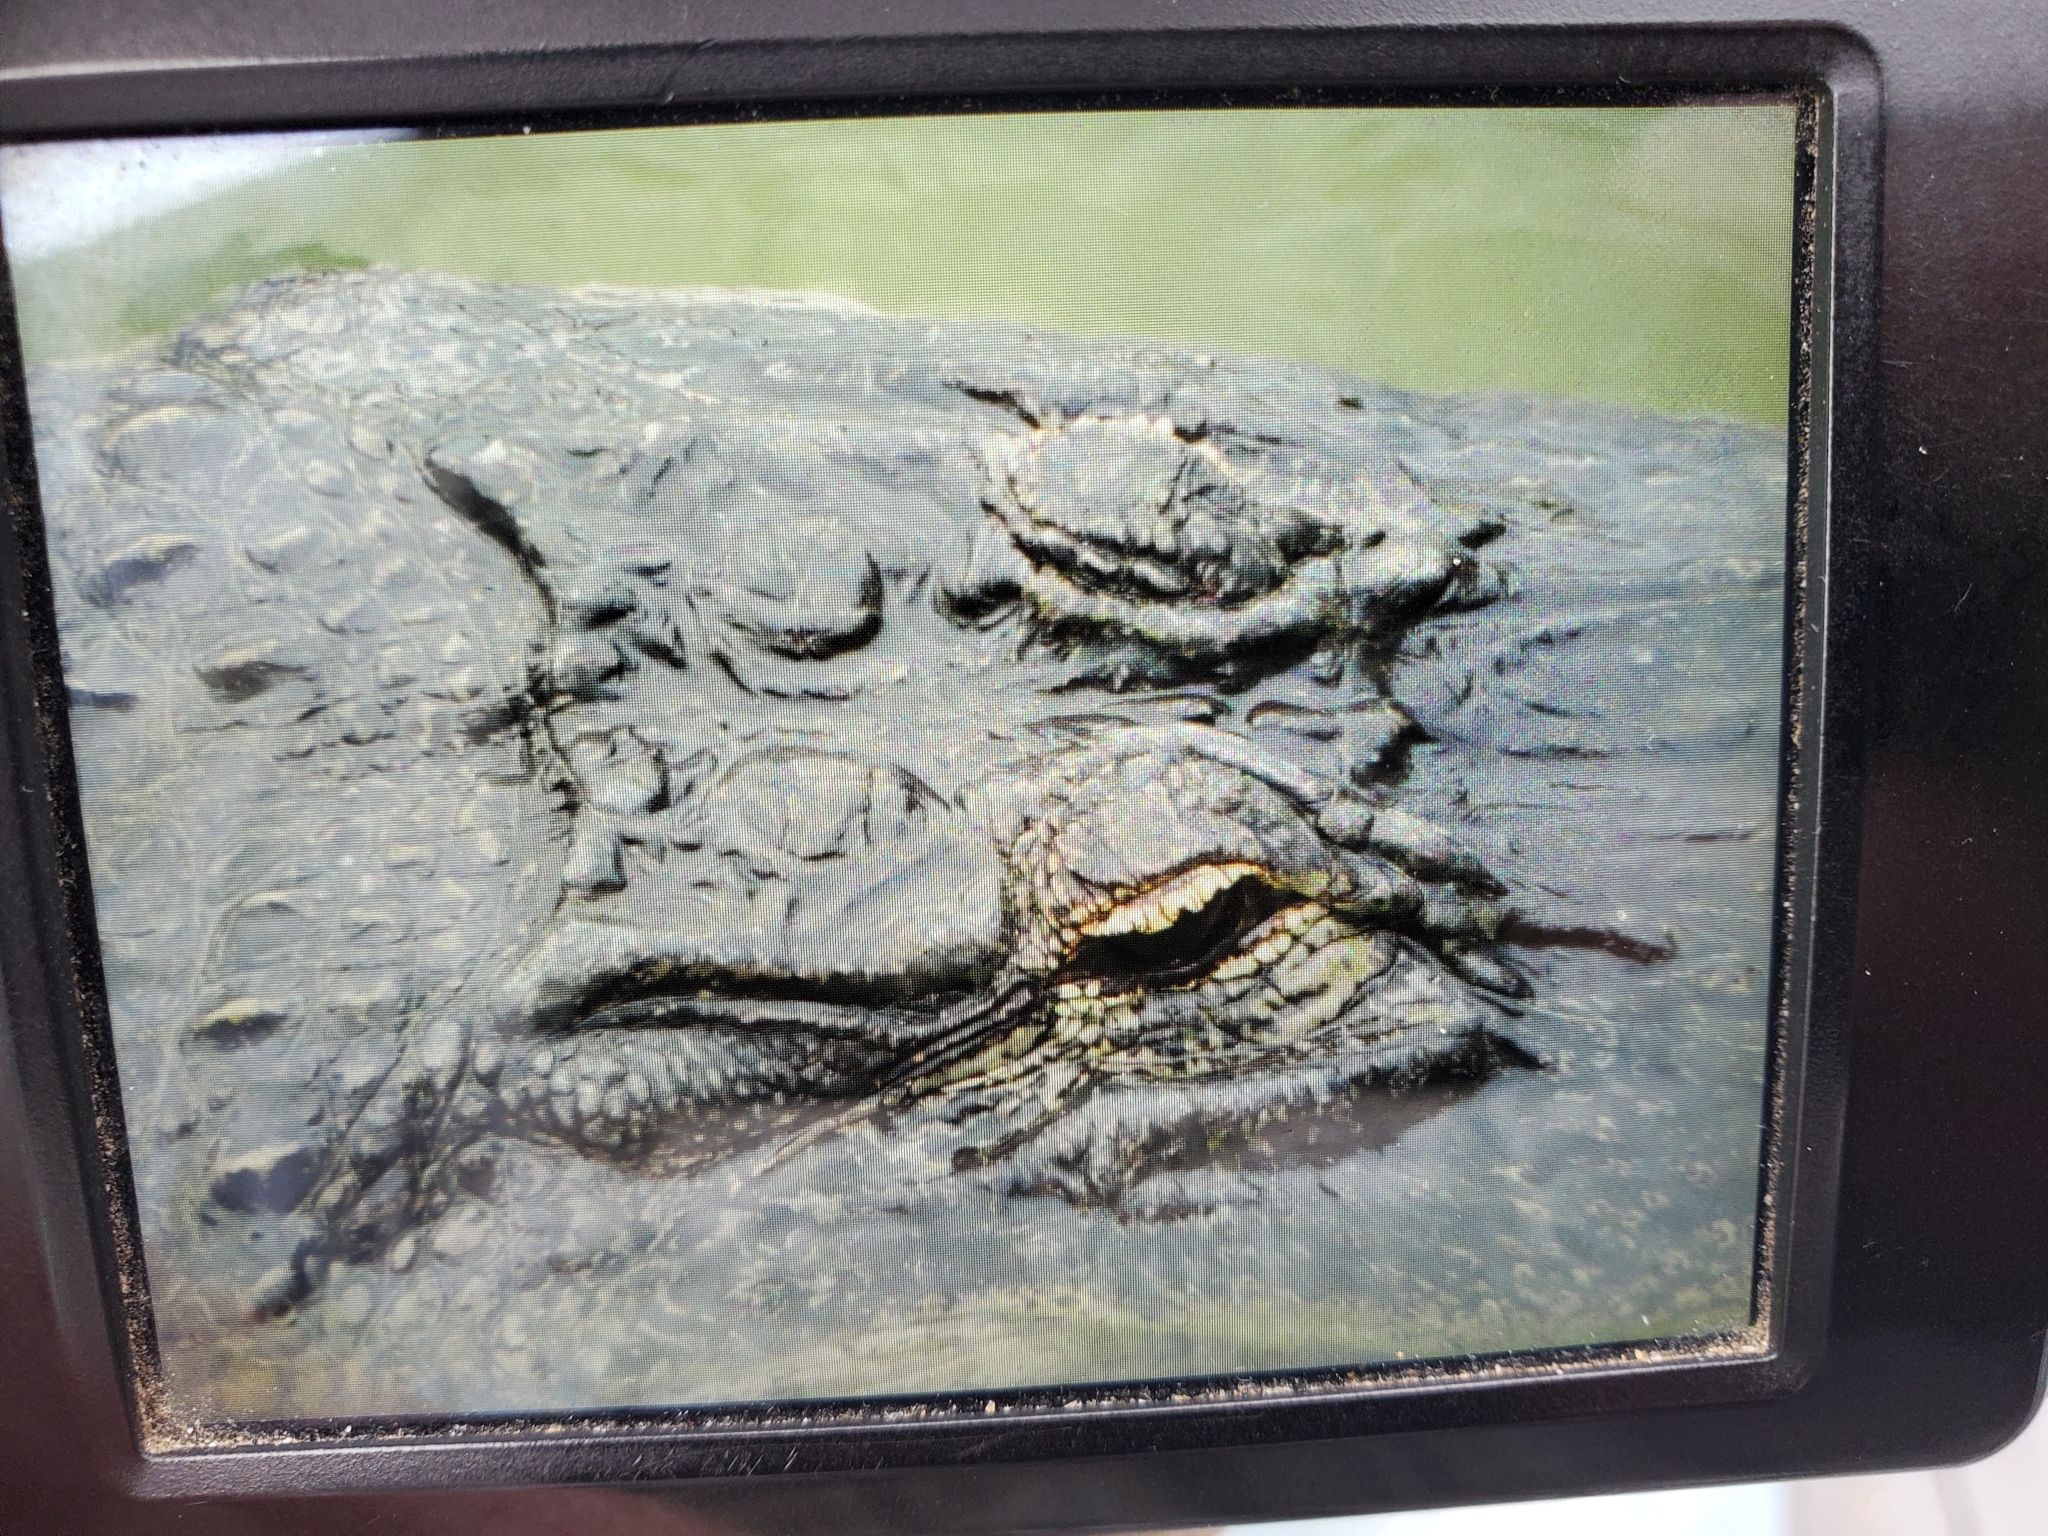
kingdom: Animalia
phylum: Chordata
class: Crocodylia
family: Alligatoridae
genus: Alligator
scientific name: Alligator mississippiensis
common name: American alligator
